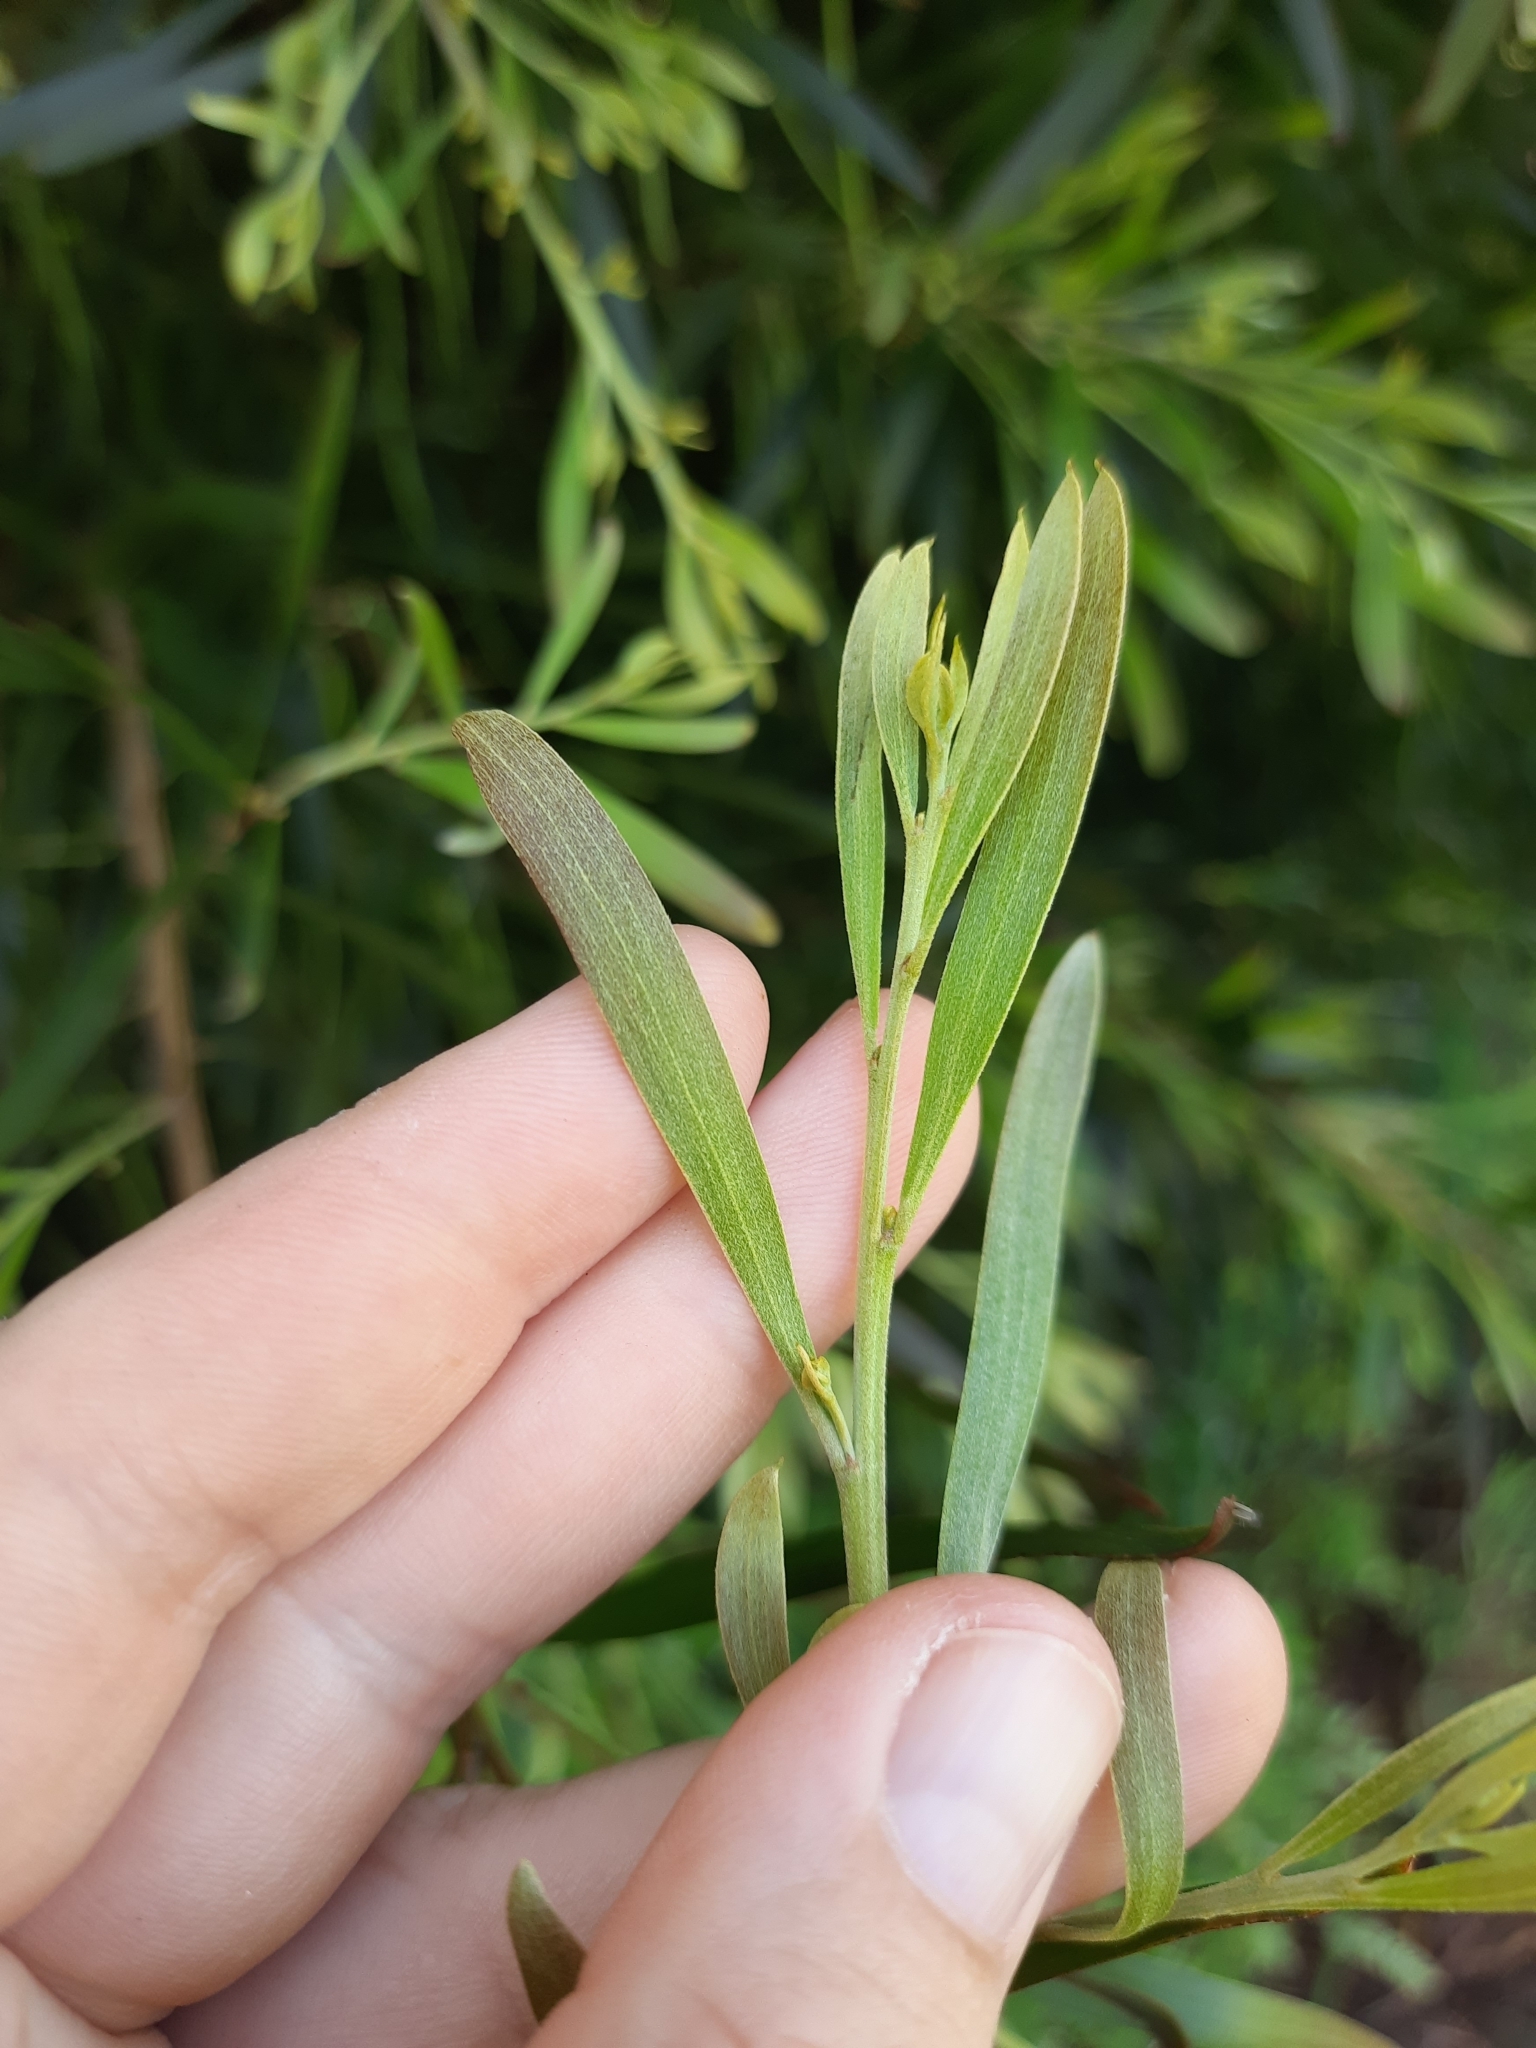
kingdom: Plantae
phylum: Tracheophyta
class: Magnoliopsida
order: Fabales
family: Fabaceae
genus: Acacia
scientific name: Acacia melanoxylon
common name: Blackwood
